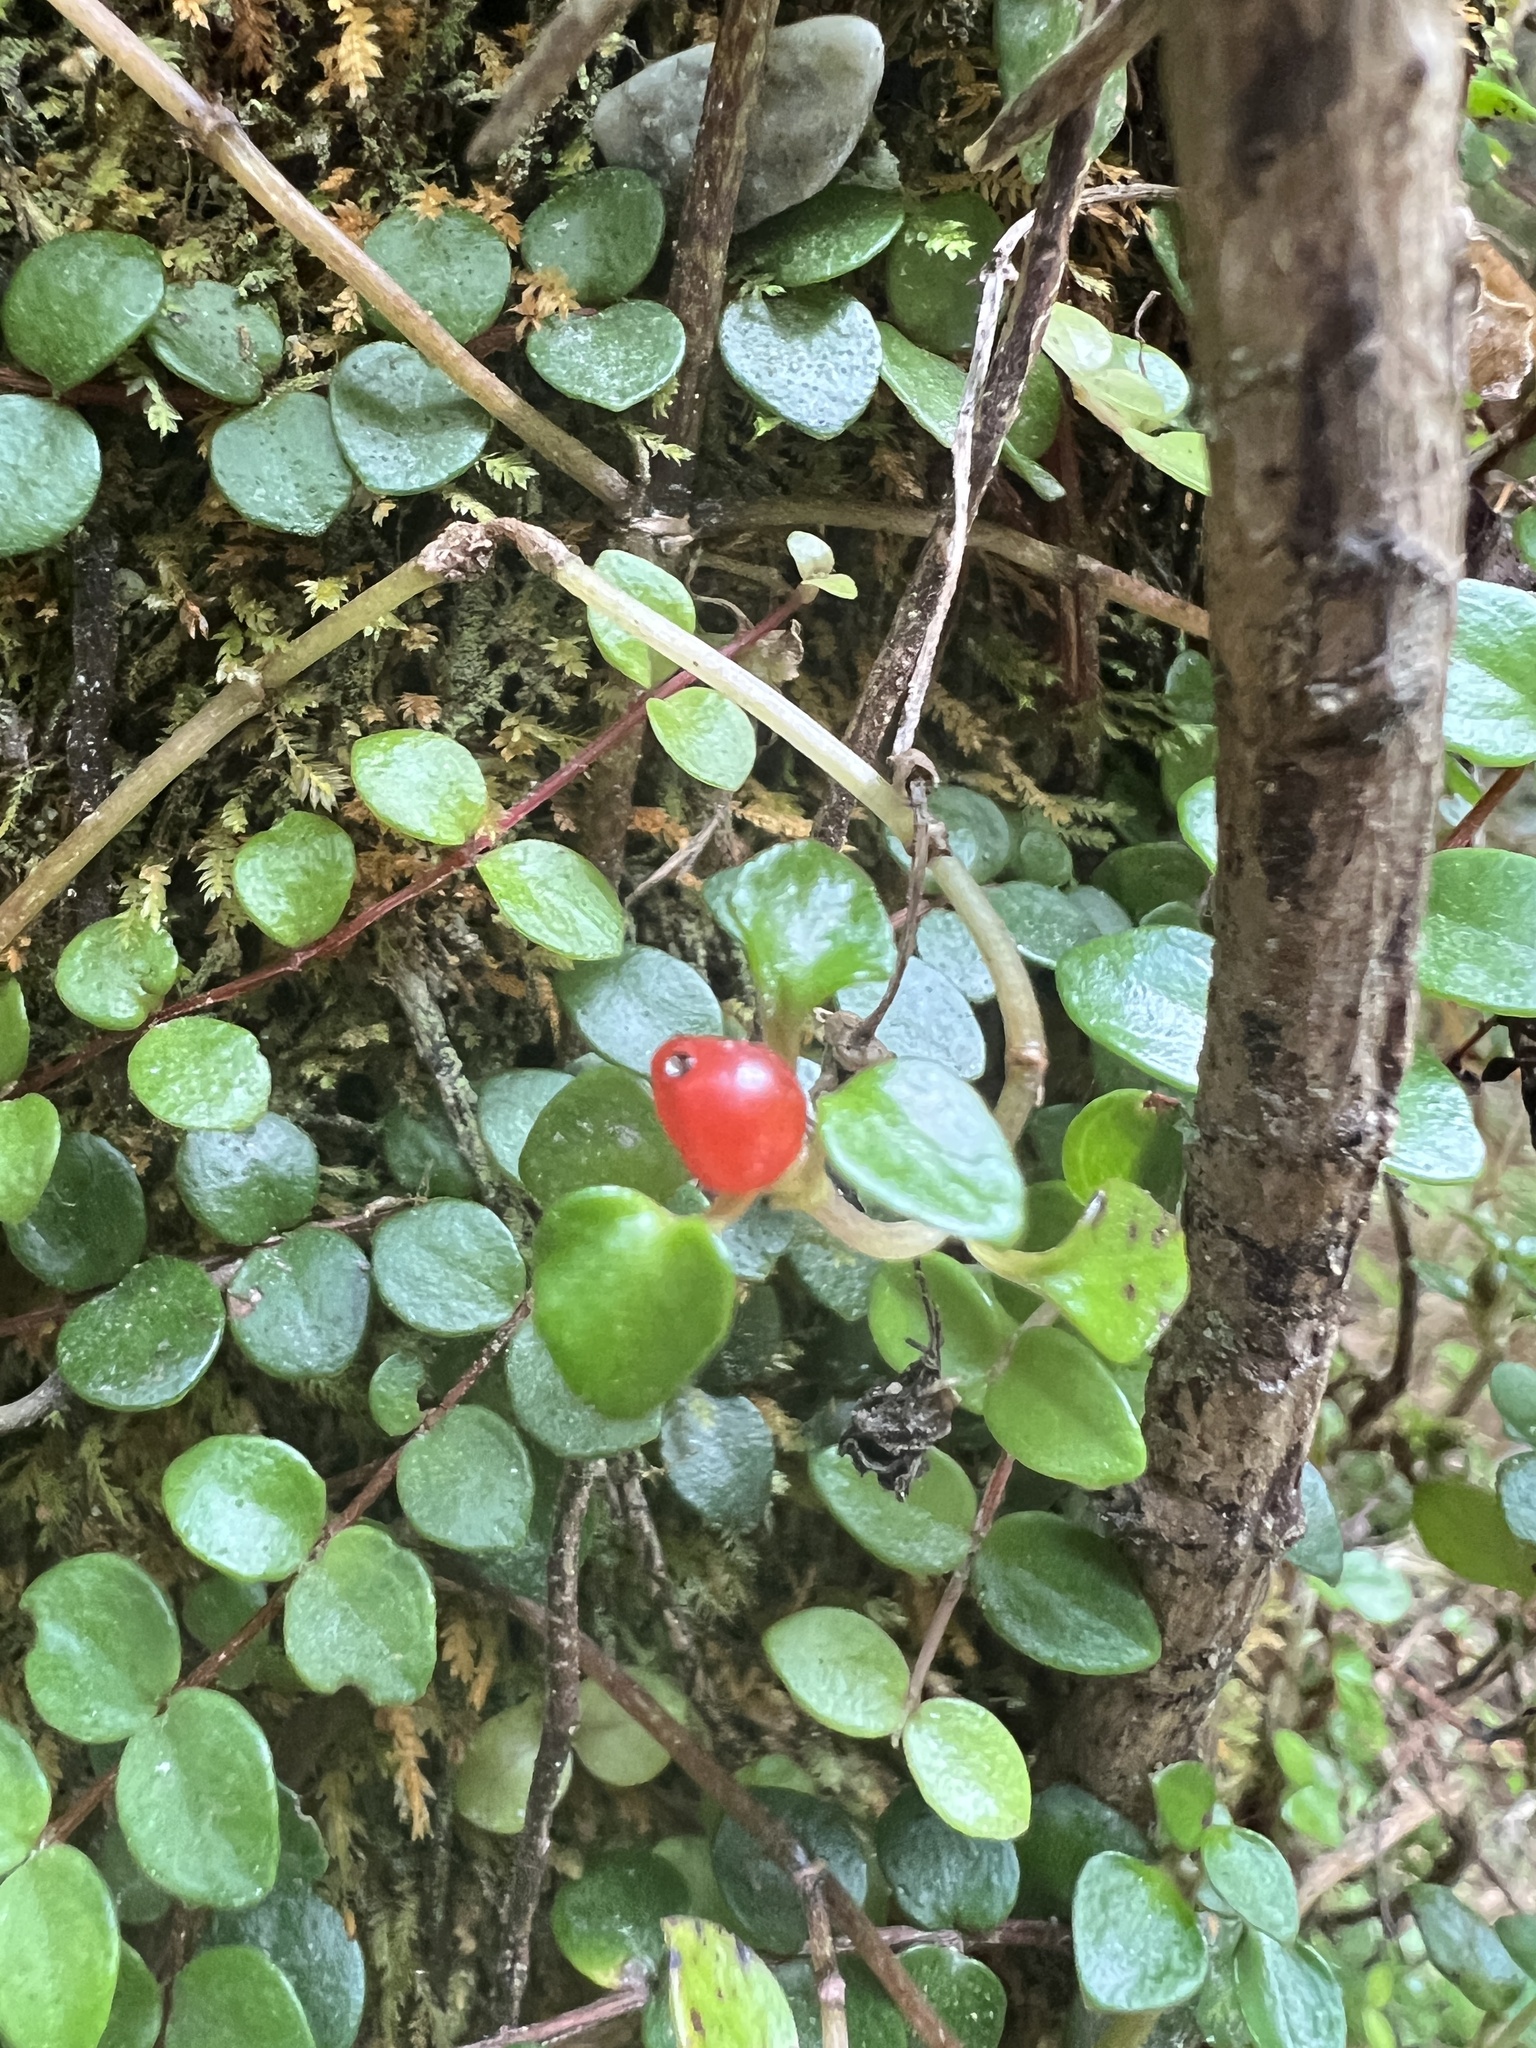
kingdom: Plantae
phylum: Tracheophyta
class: Magnoliopsida
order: Gentianales
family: Rubiaceae
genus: Nertera
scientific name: Nertera granadensis
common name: Beadplant
